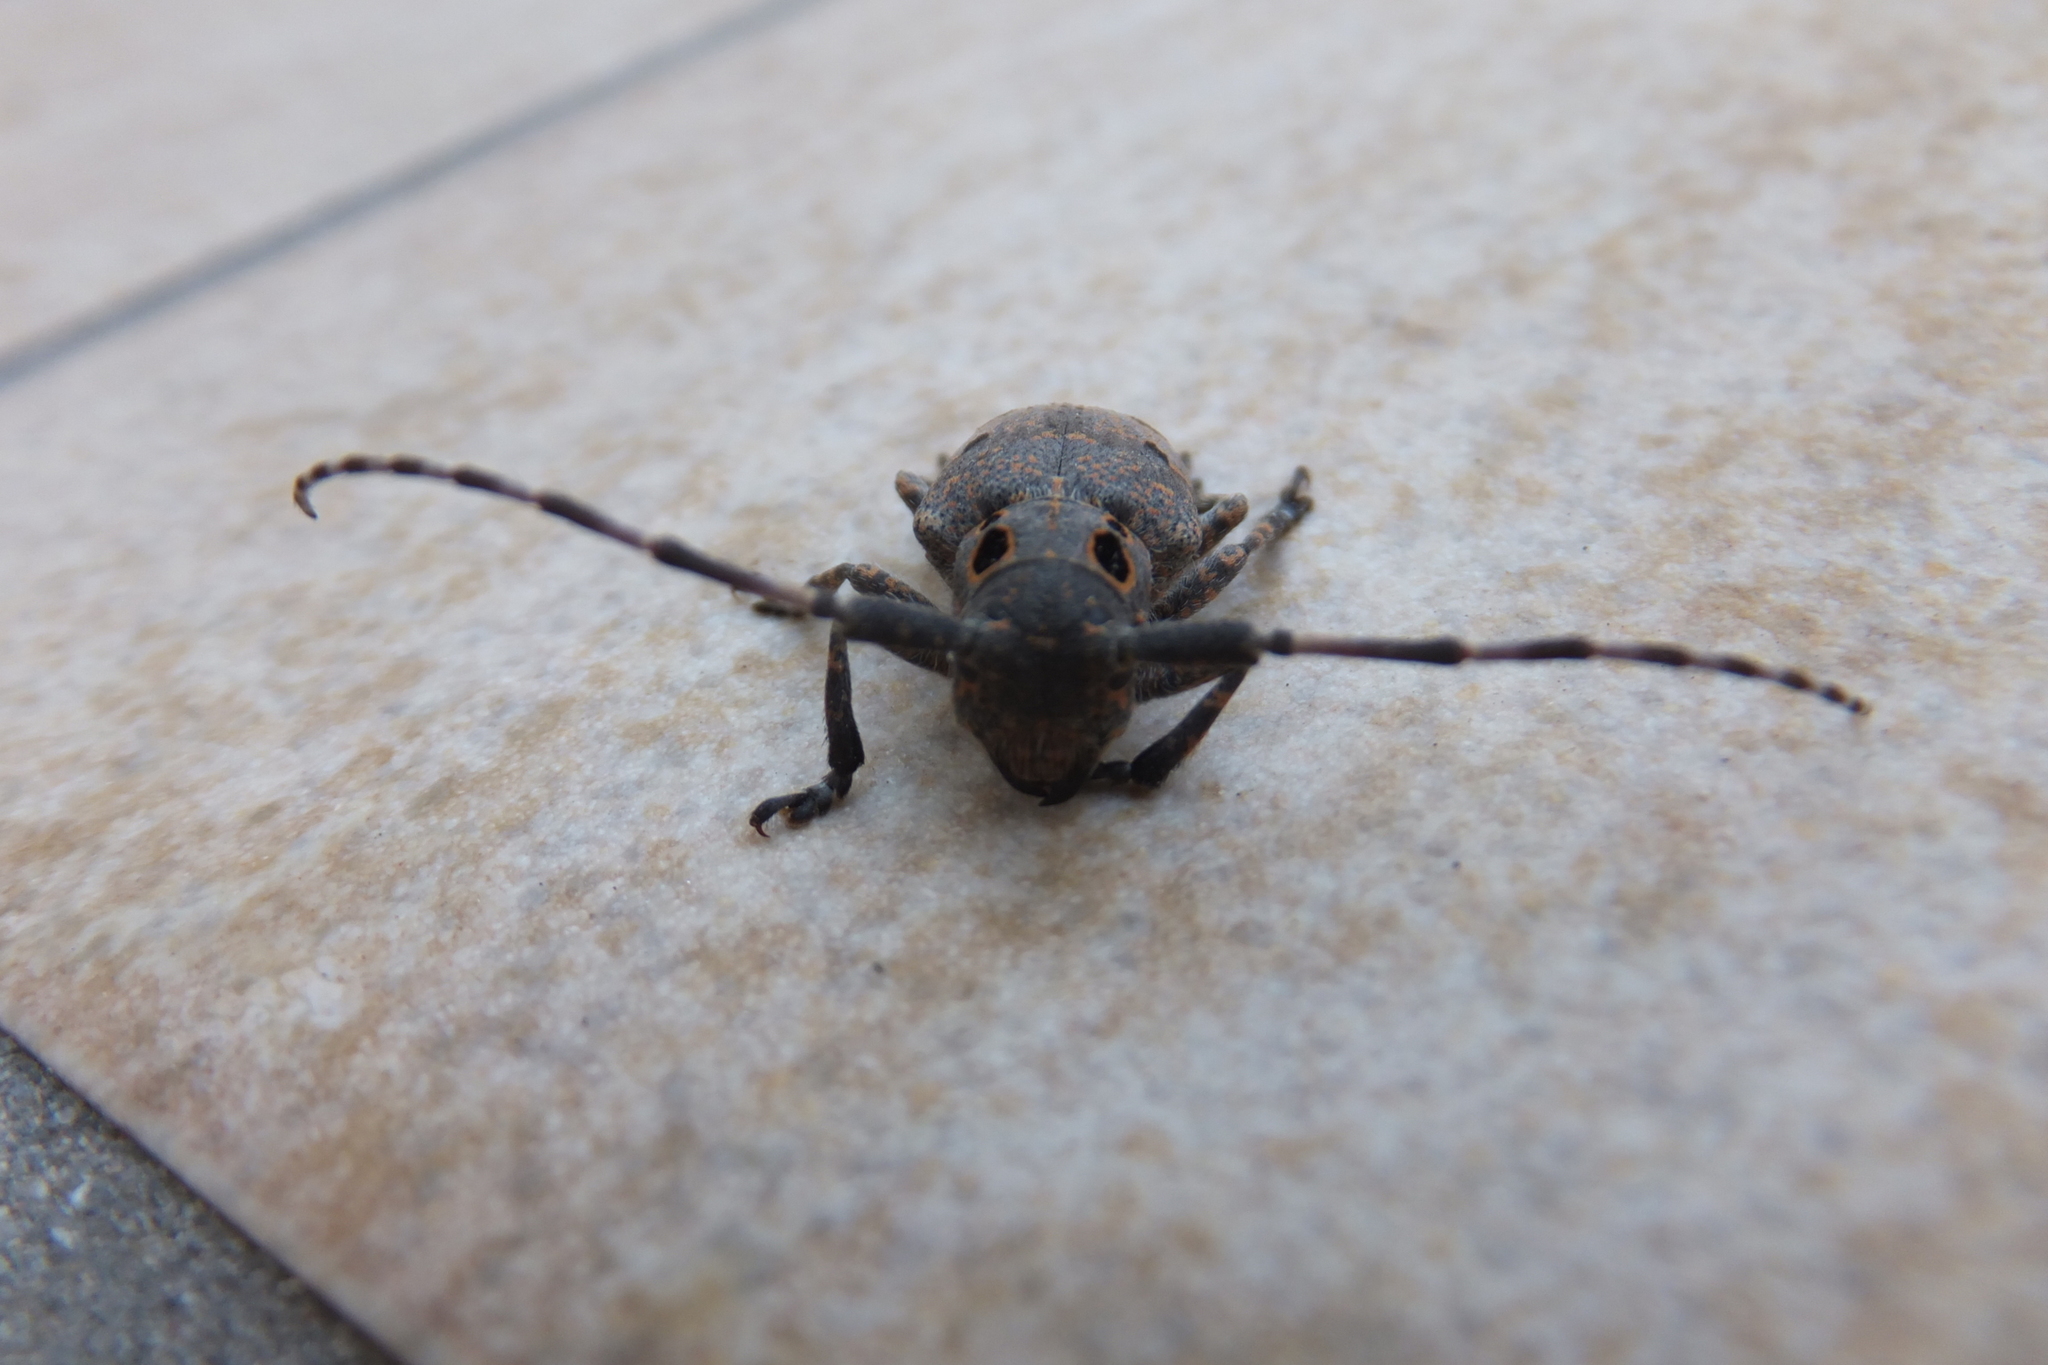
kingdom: Animalia
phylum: Arthropoda
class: Insecta
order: Coleoptera
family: Cerambycidae
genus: Mesosa
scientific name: Mesosa curculionoides
